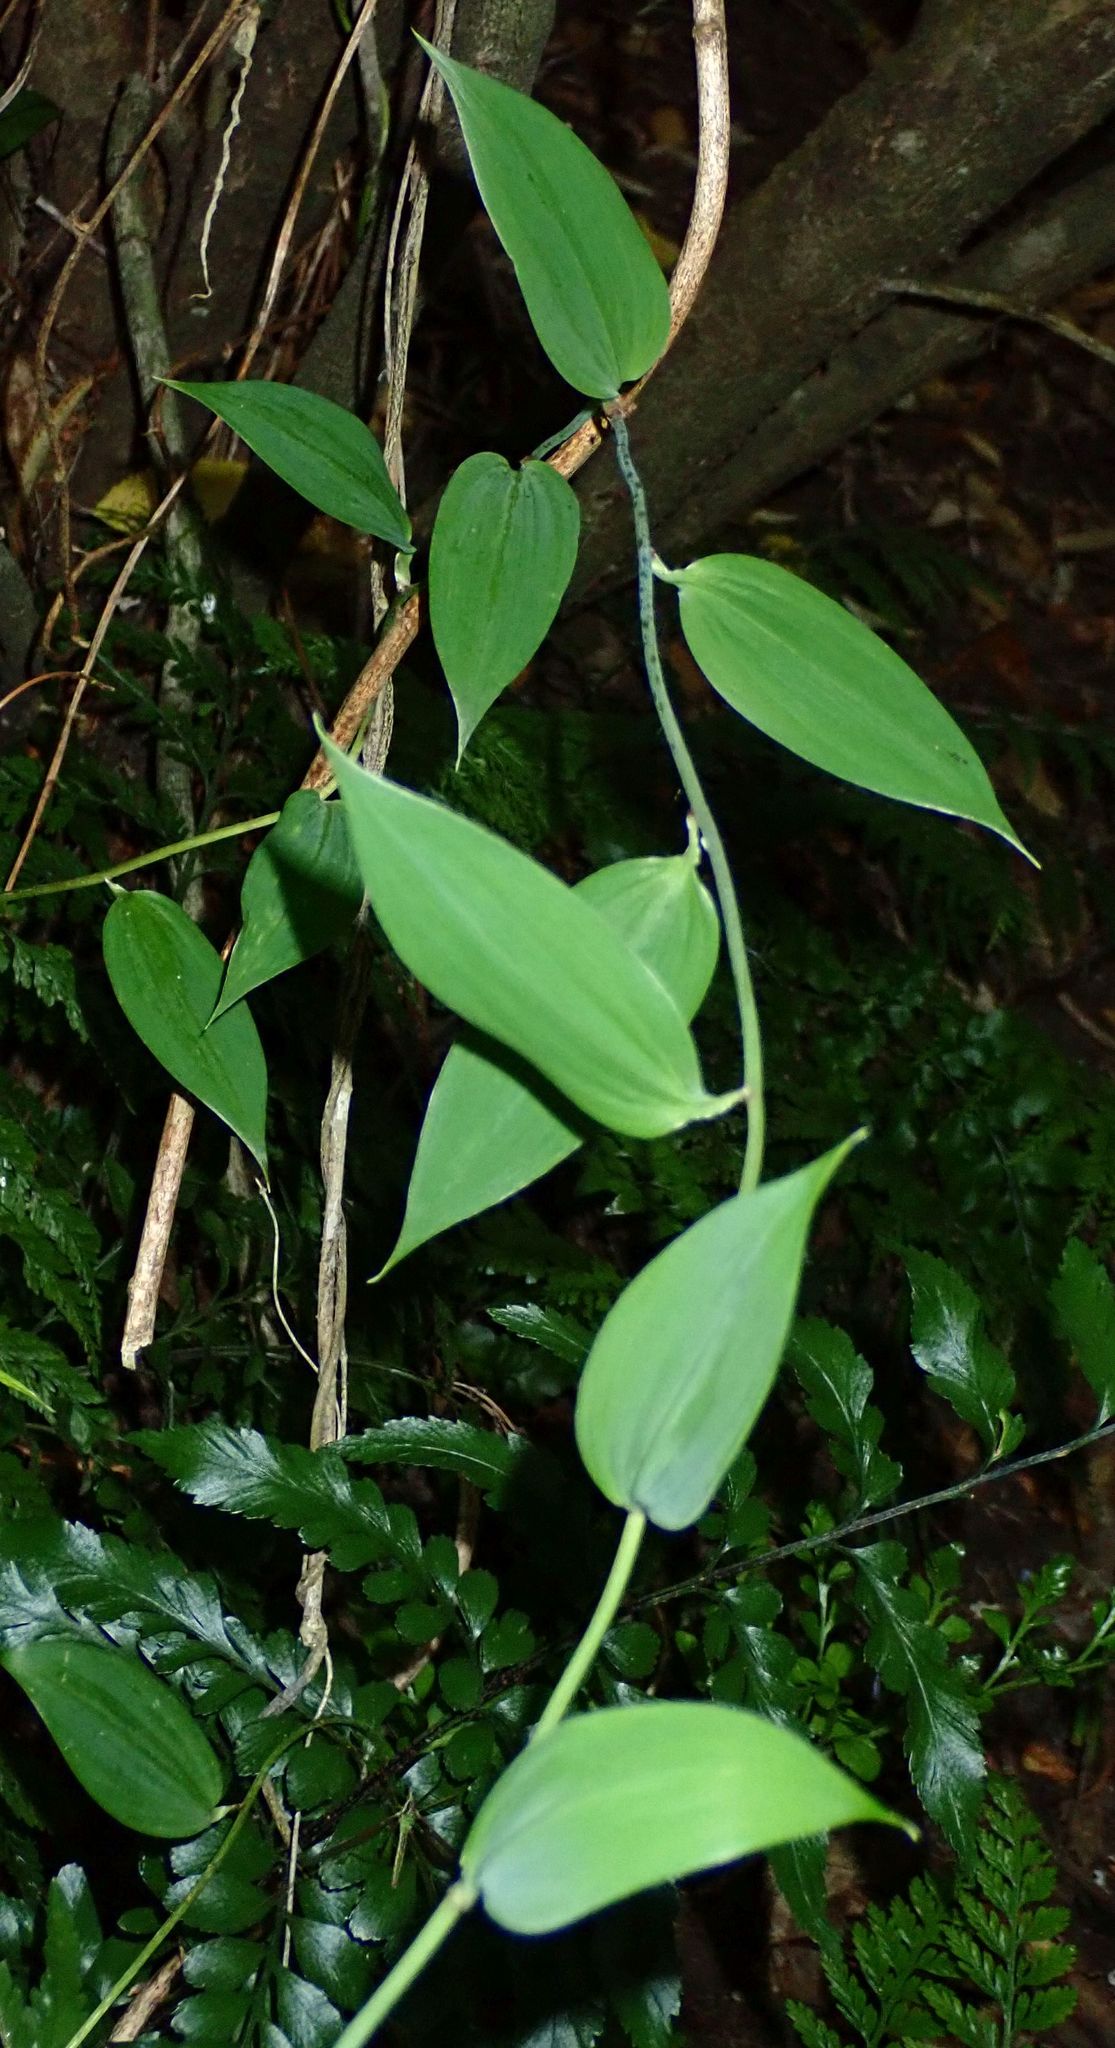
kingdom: Plantae
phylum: Tracheophyta
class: Liliopsida
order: Liliales
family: Alstroemeriaceae
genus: Bomarea
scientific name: Bomarea multiflora
